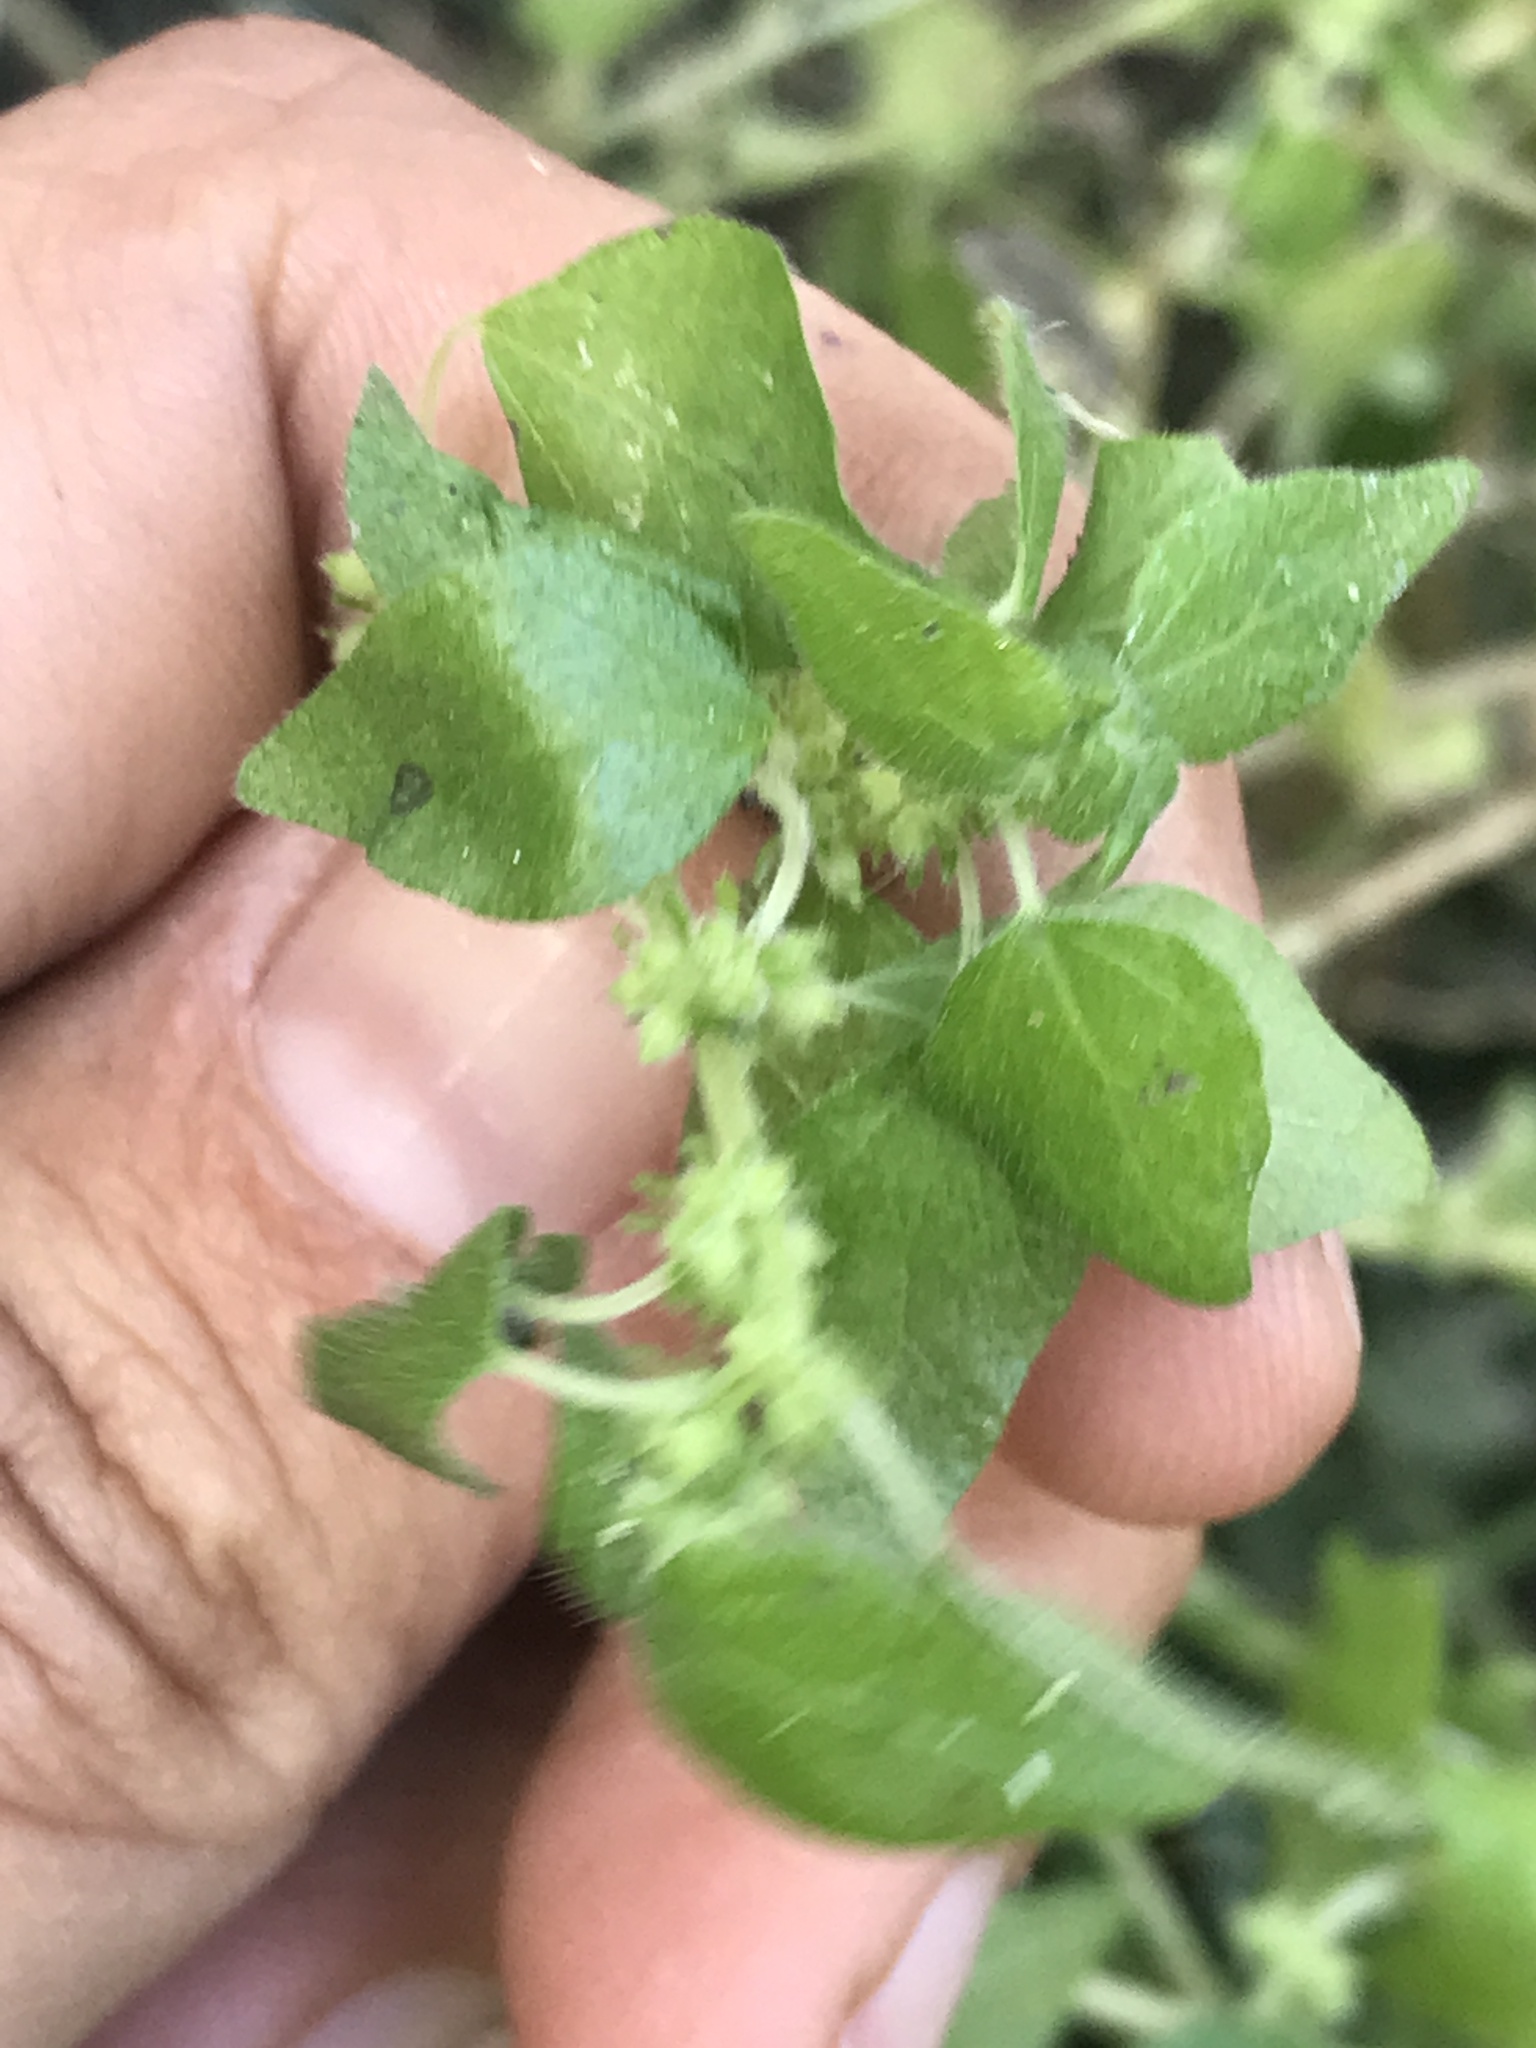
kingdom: Plantae
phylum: Tracheophyta
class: Magnoliopsida
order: Rosales
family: Urticaceae
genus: Parietaria
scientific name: Parietaria debilis
